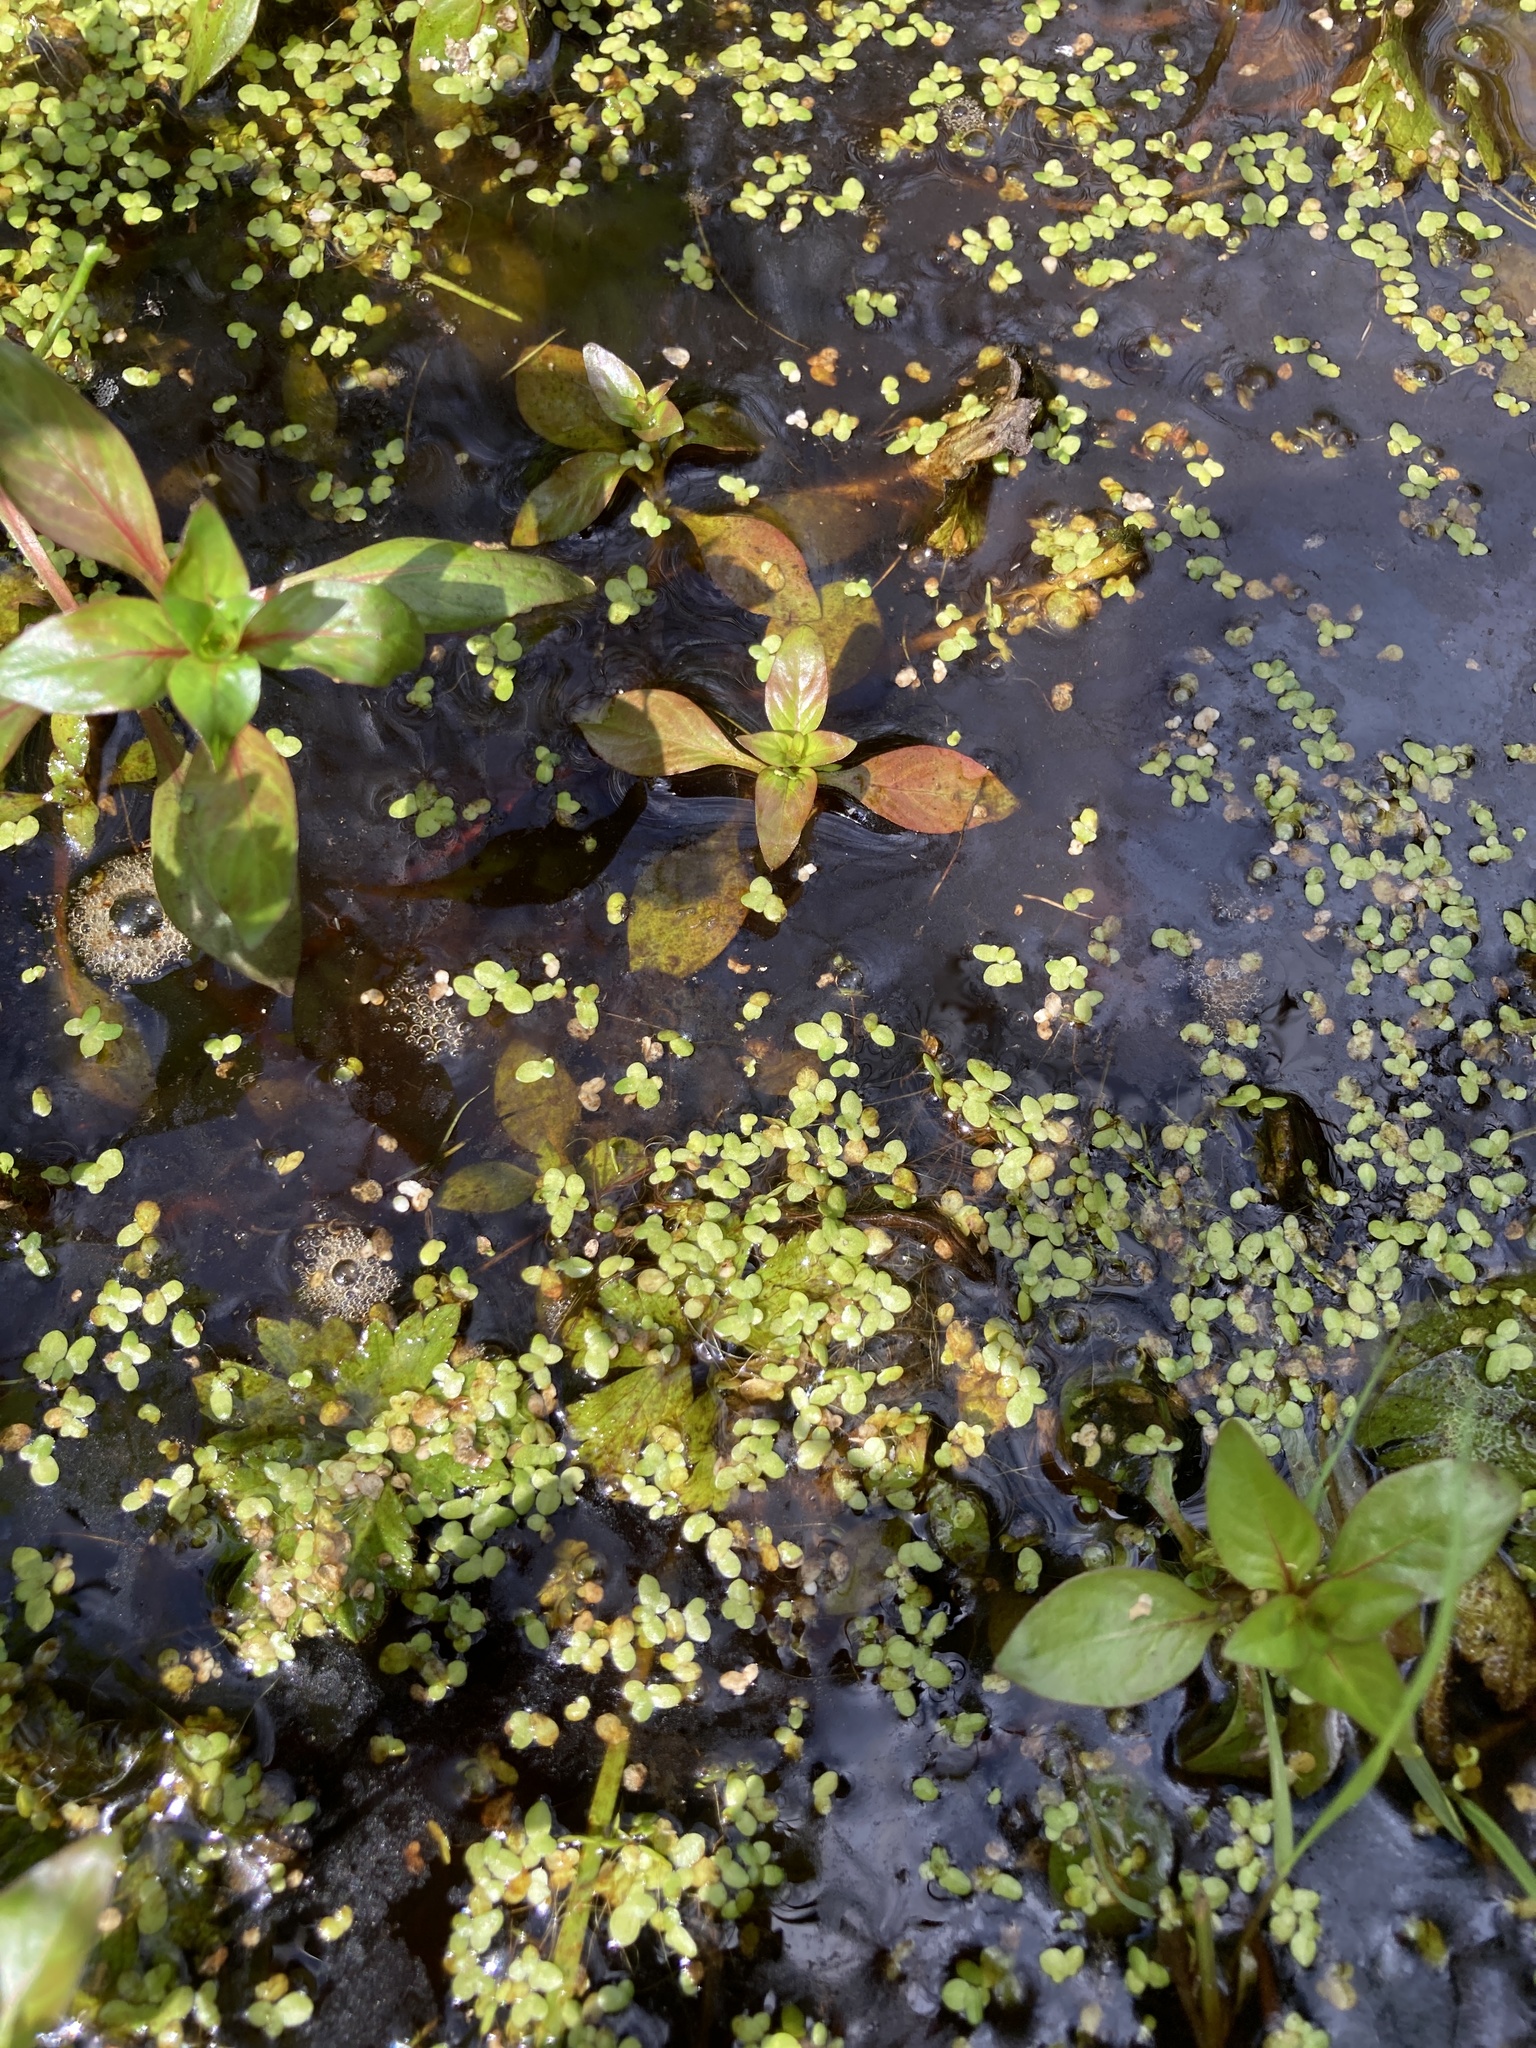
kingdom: Plantae
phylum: Tracheophyta
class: Magnoliopsida
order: Lamiales
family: Plantaginaceae
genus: Callitriche
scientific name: Callitriche stagnalis
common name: Common water-starwort
